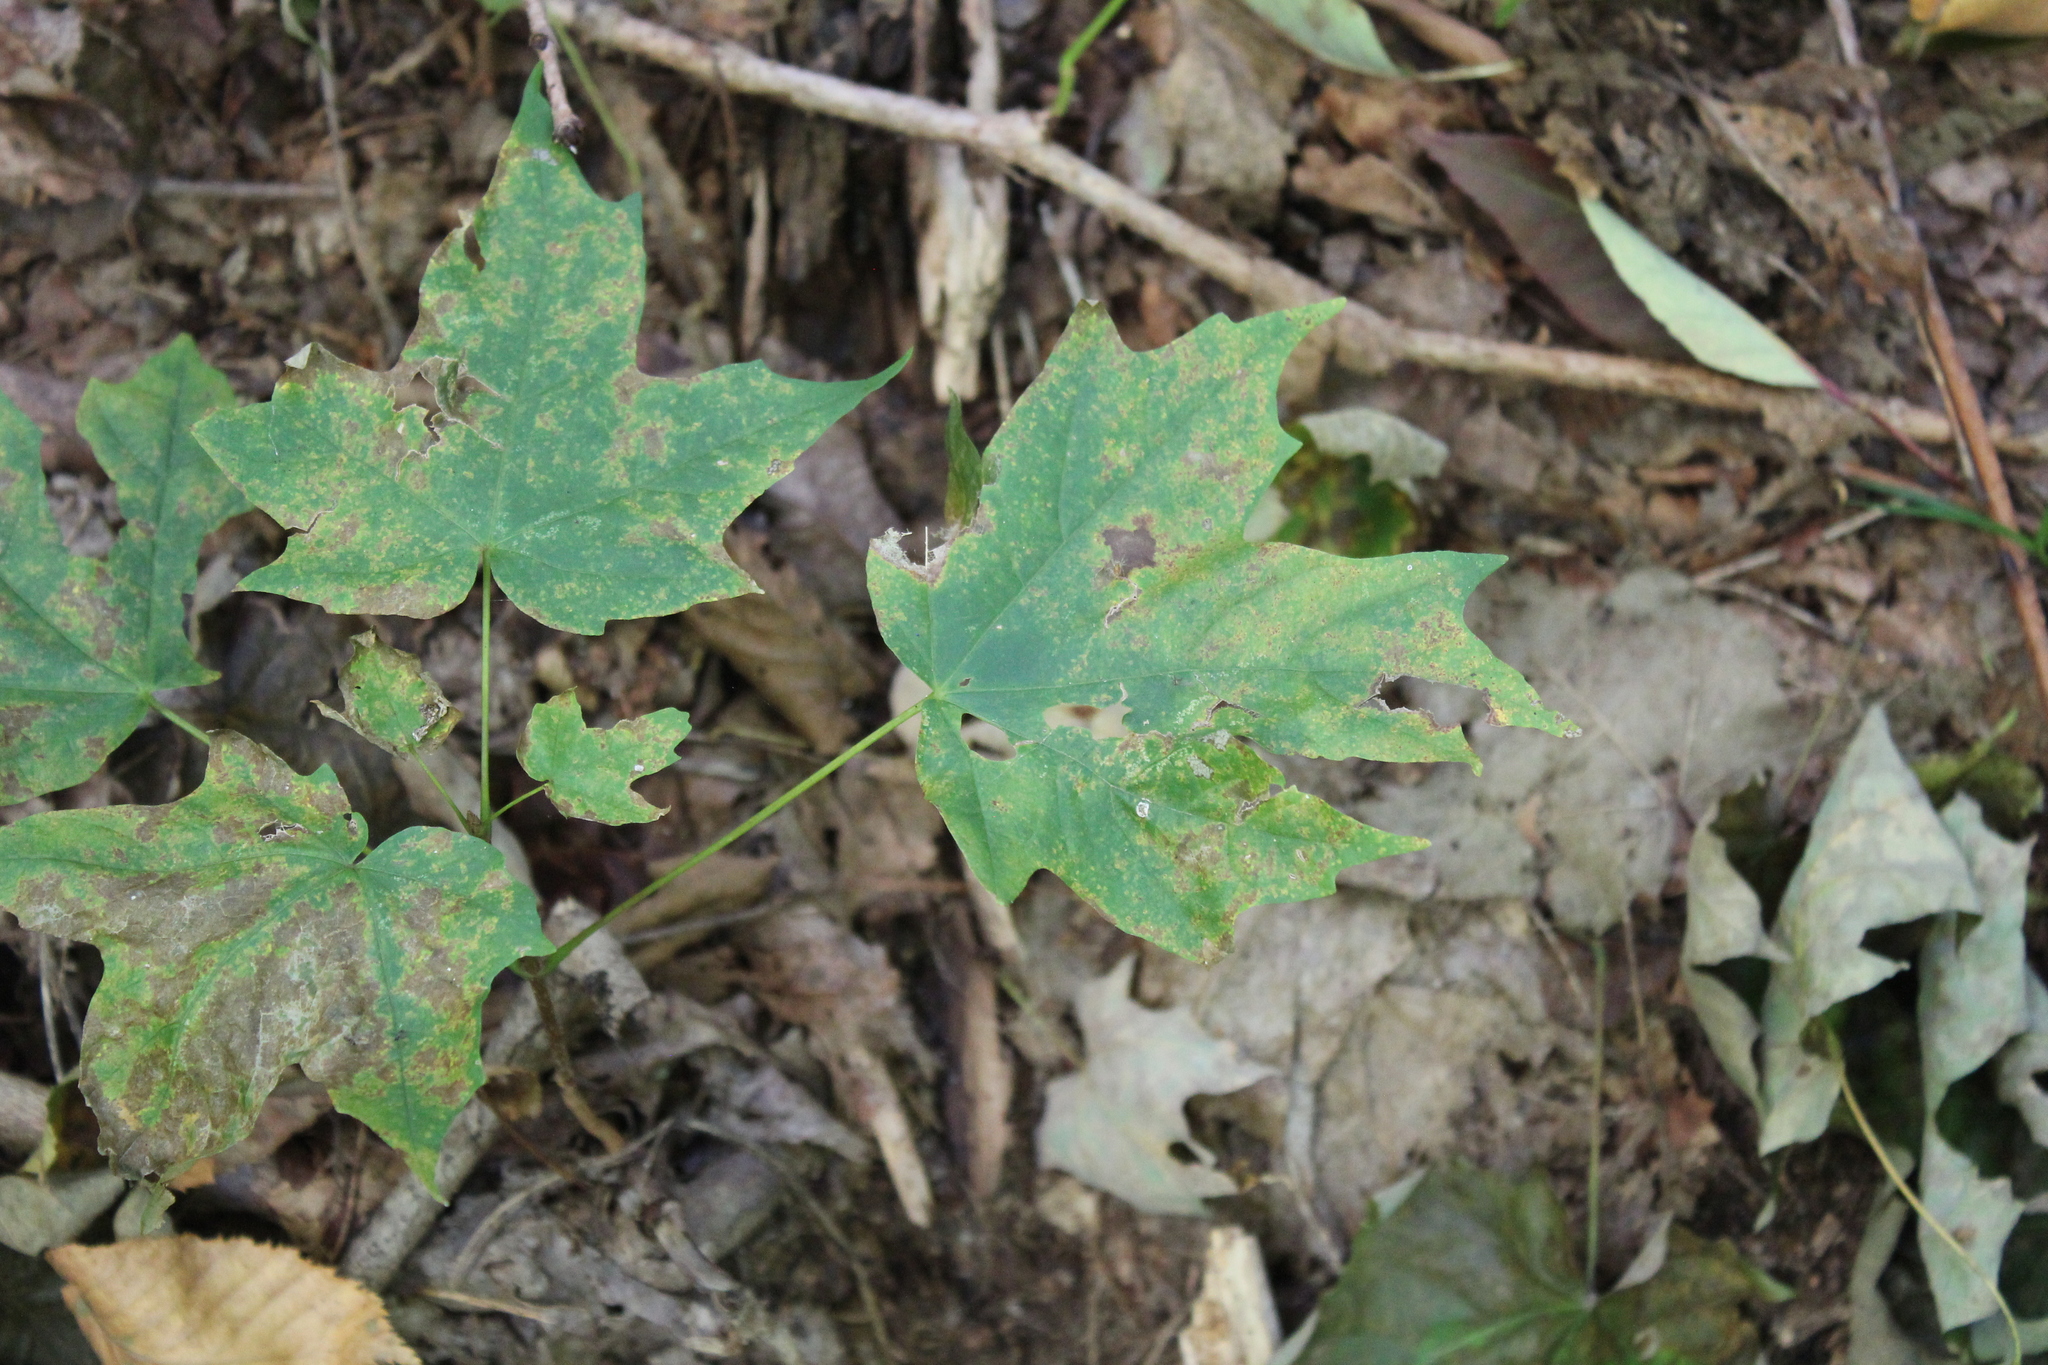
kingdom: Plantae
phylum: Tracheophyta
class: Magnoliopsida
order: Sapindales
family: Sapindaceae
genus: Acer
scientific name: Acer saccharum
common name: Sugar maple
